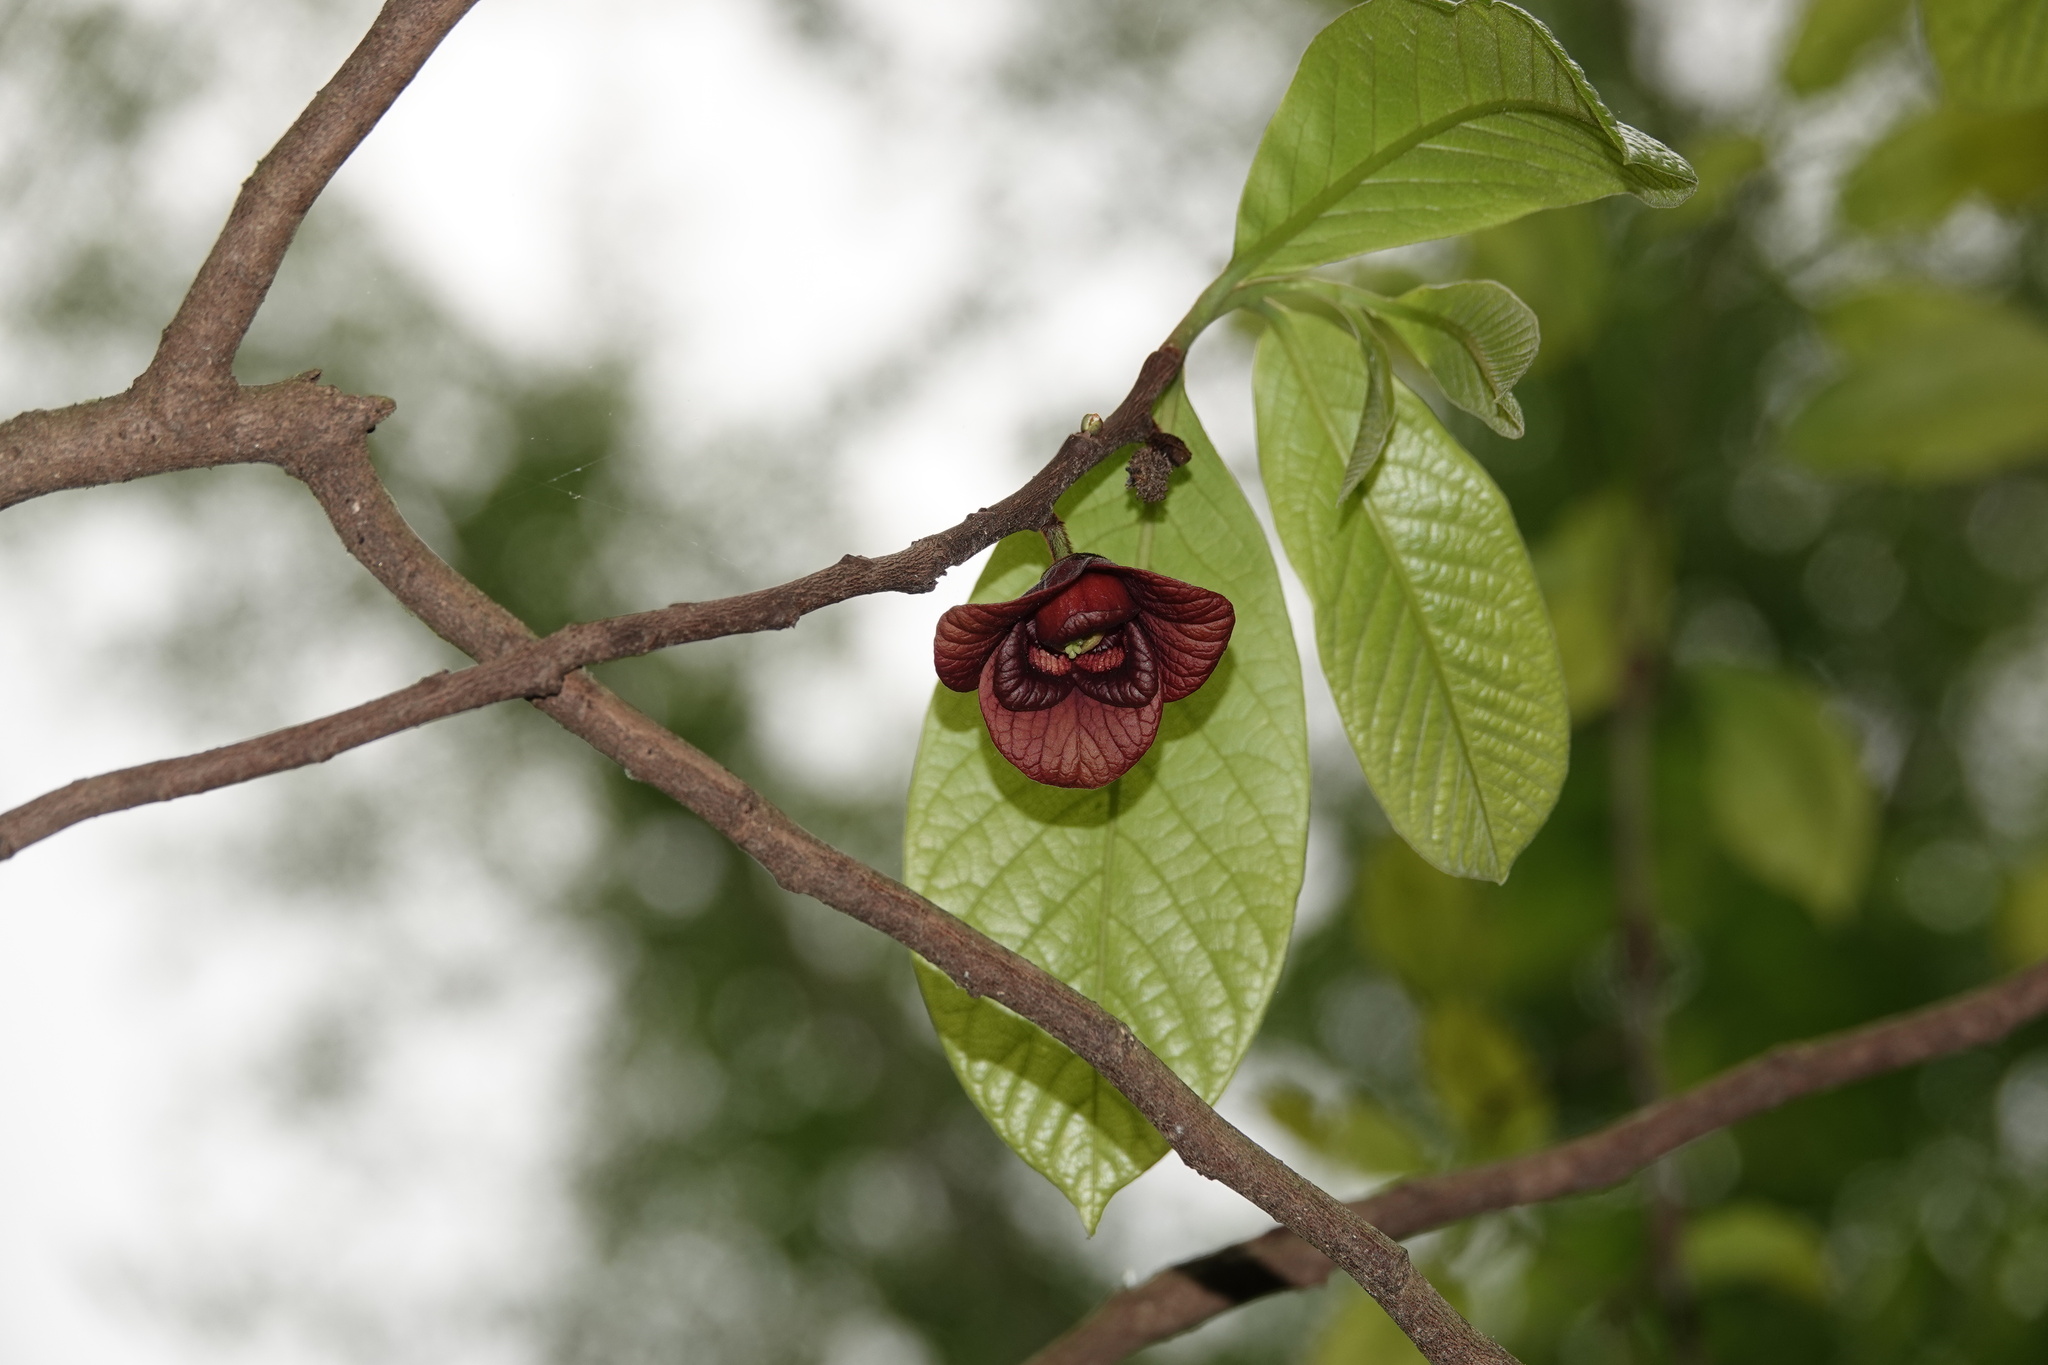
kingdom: Plantae
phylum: Tracheophyta
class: Magnoliopsida
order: Magnoliales
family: Annonaceae
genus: Asimina
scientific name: Asimina triloba
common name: Dog-banana
